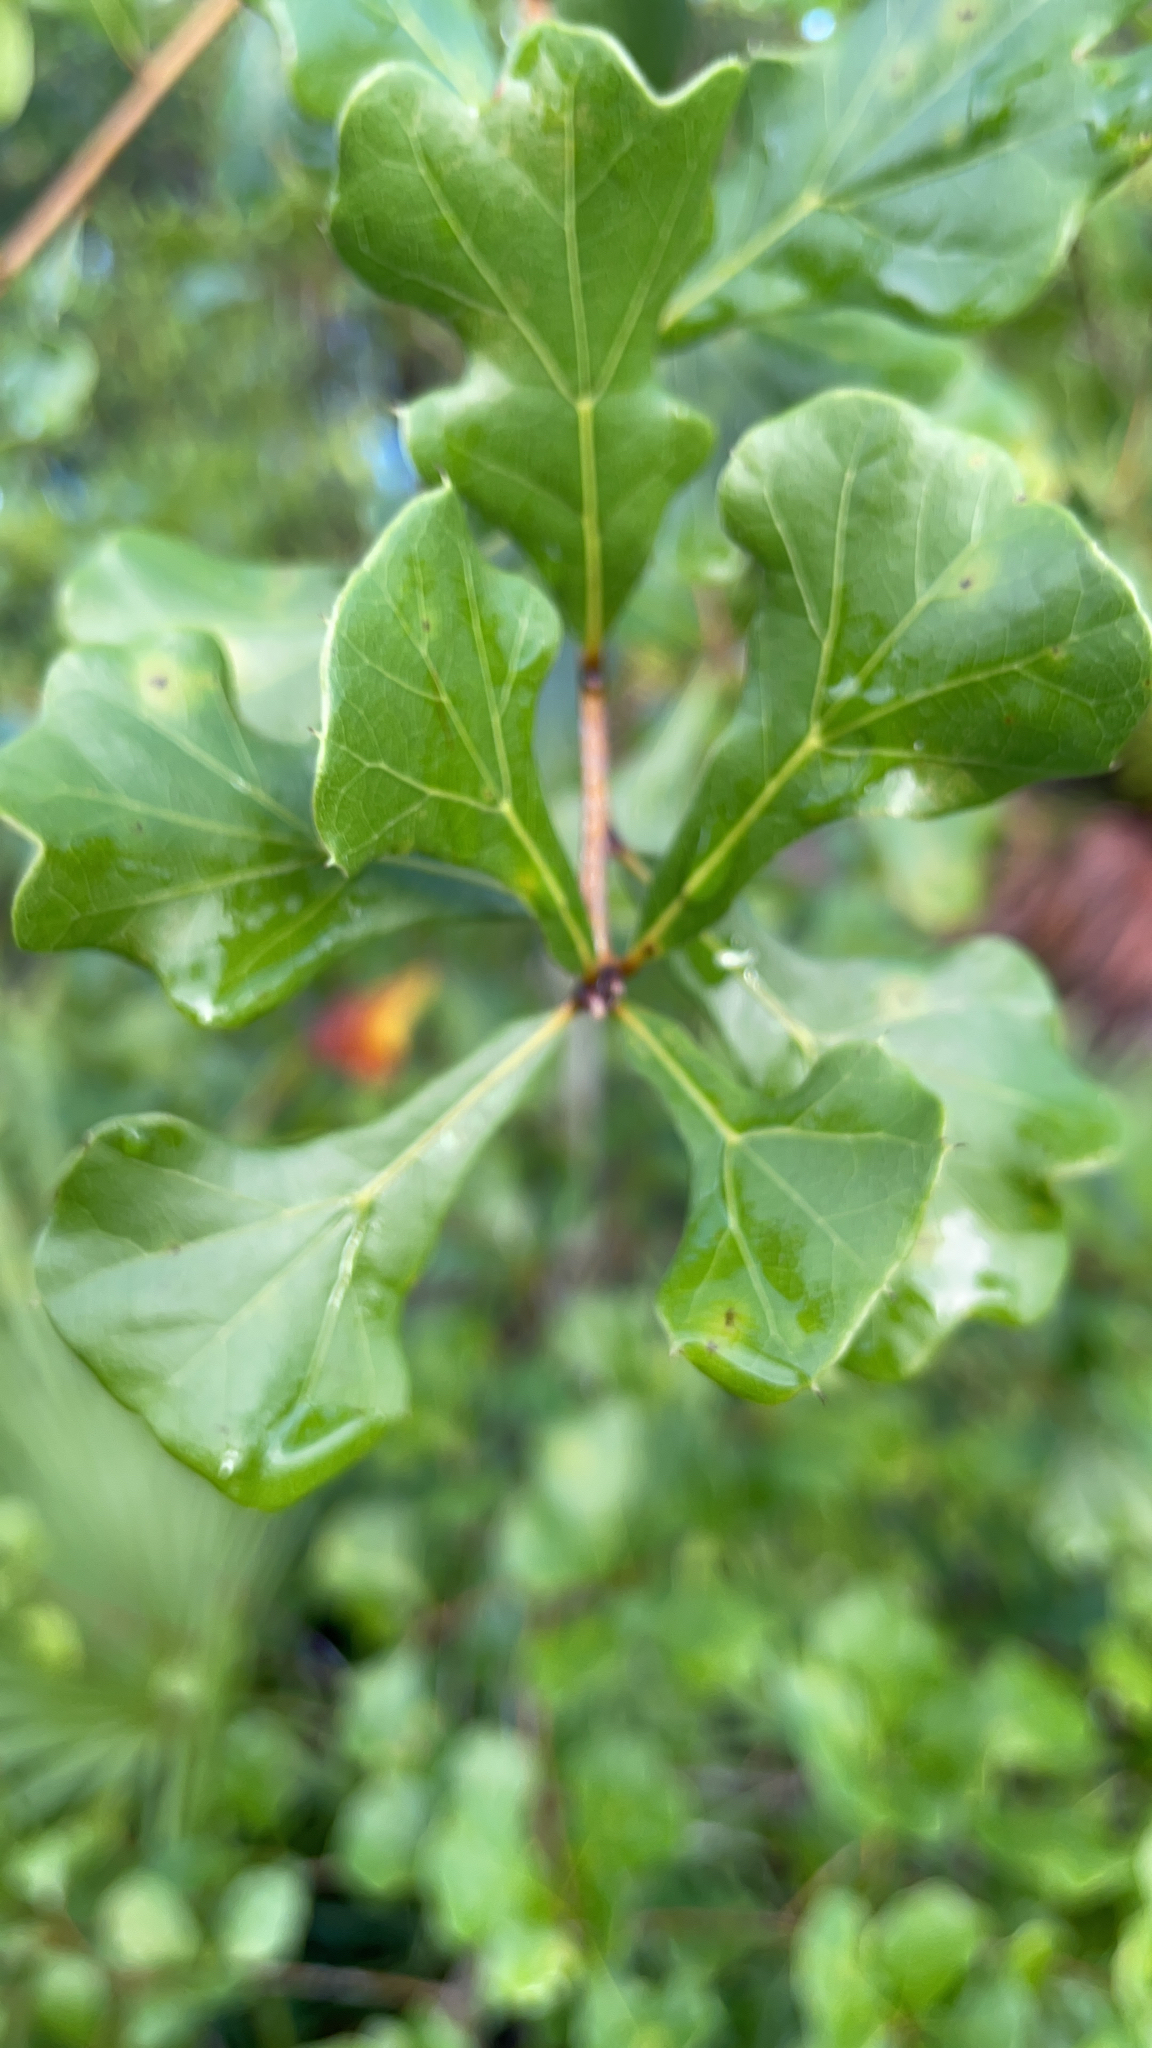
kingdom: Plantae
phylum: Tracheophyta
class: Magnoliopsida
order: Fagales
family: Fagaceae
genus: Quercus
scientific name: Quercus nigra
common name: Water oak
